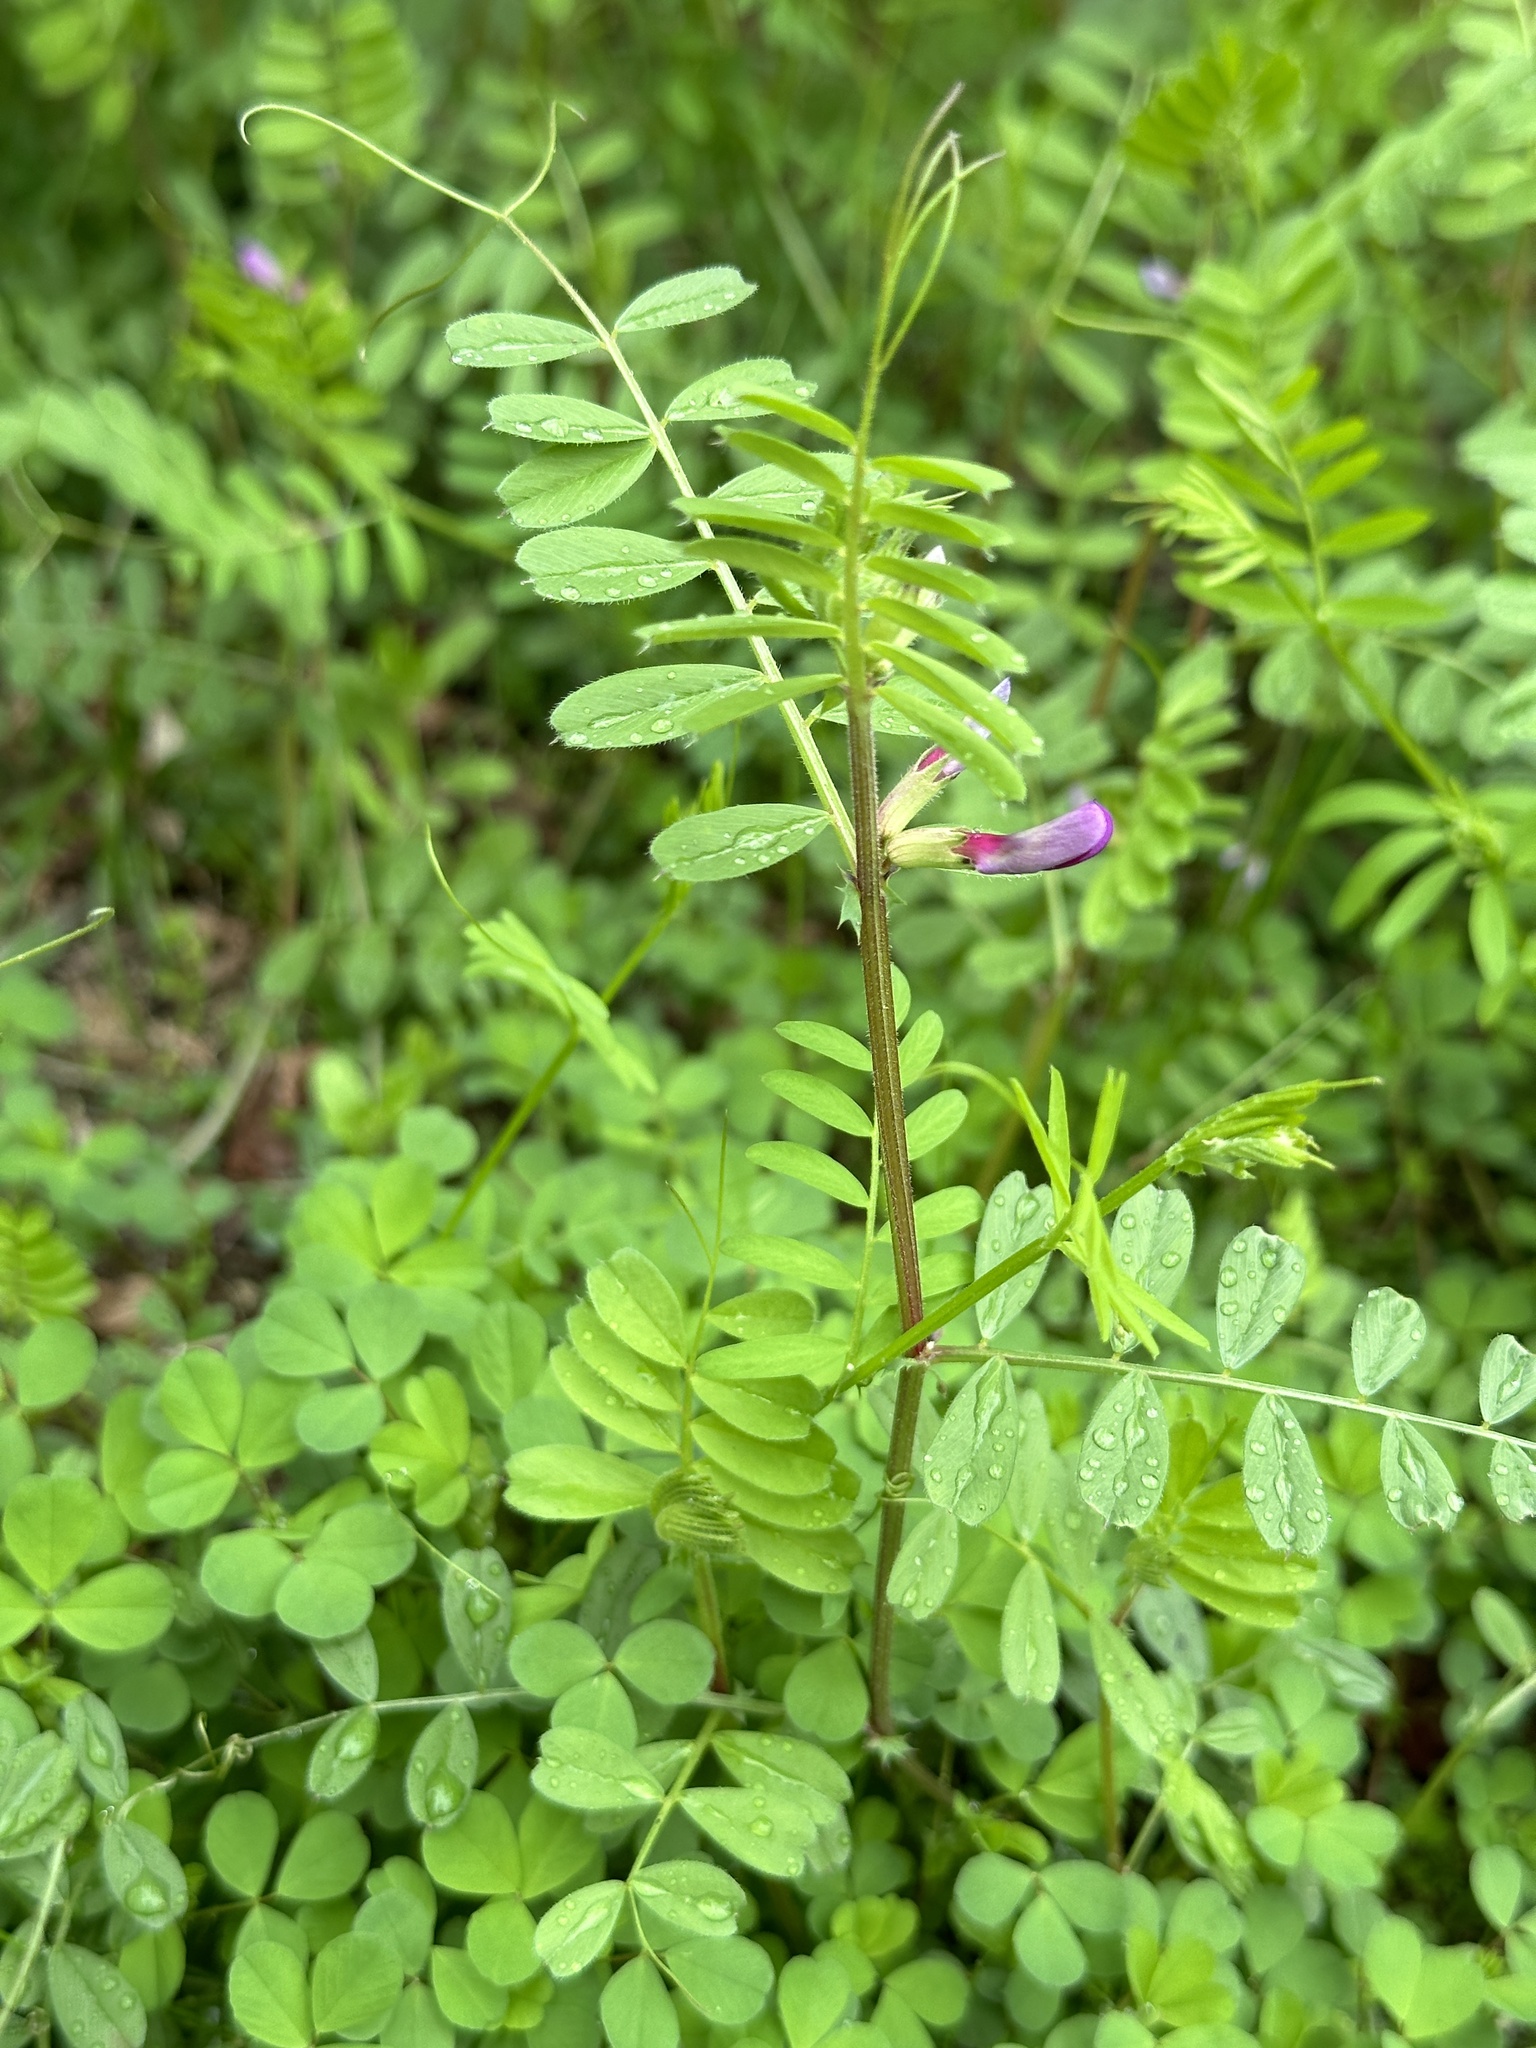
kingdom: Plantae
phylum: Tracheophyta
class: Magnoliopsida
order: Fabales
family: Fabaceae
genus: Vicia
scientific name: Vicia sativa
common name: Garden vetch
